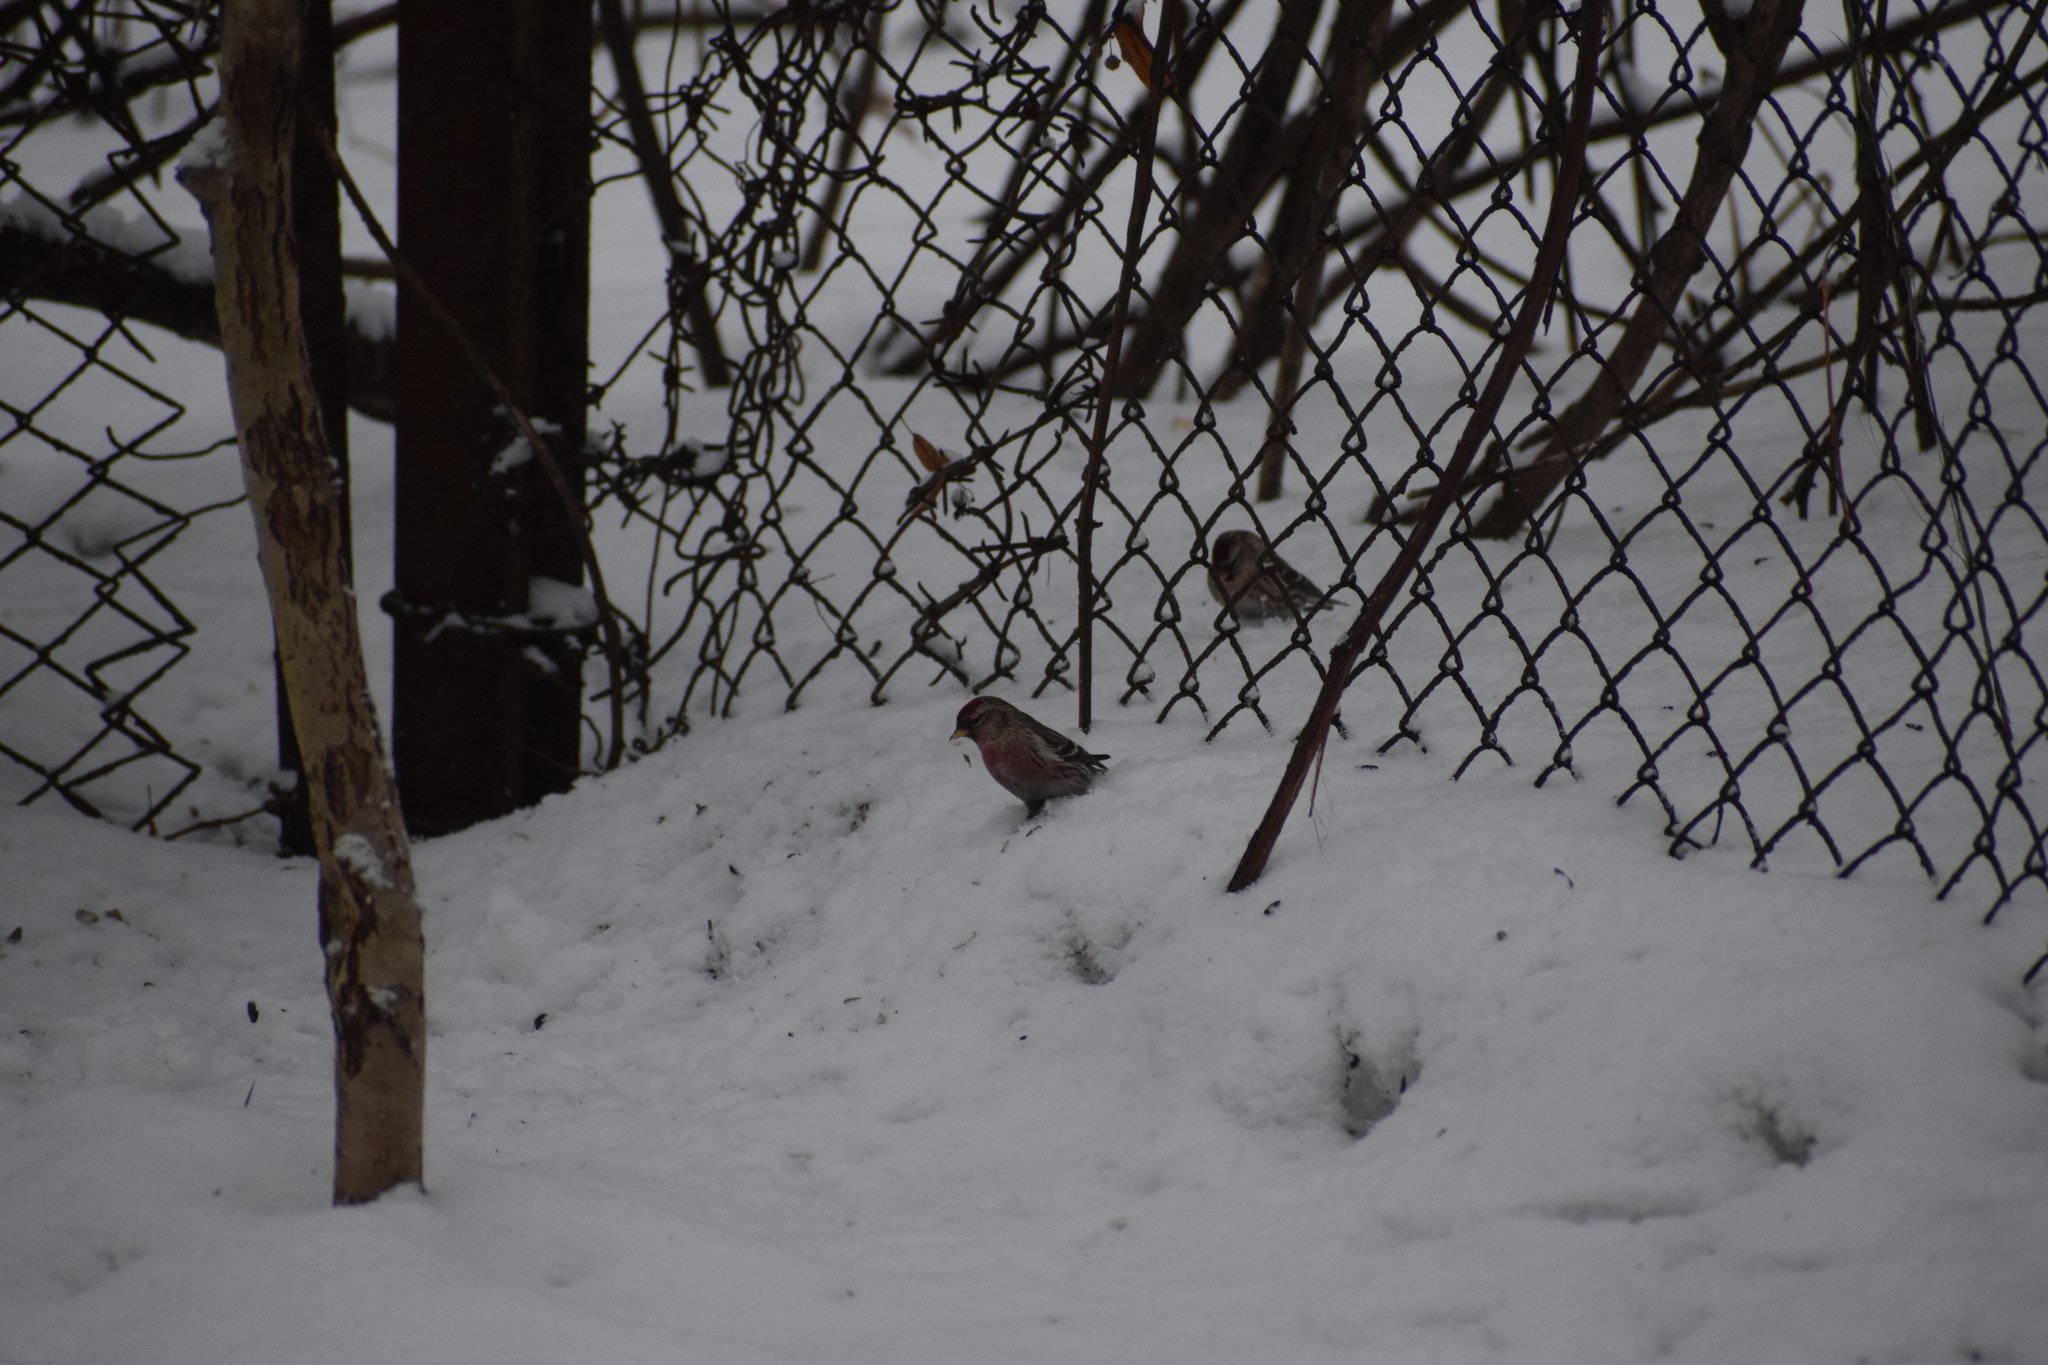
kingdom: Animalia
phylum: Chordata
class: Aves
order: Passeriformes
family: Fringillidae
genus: Acanthis
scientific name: Acanthis flammea
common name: Common redpoll
